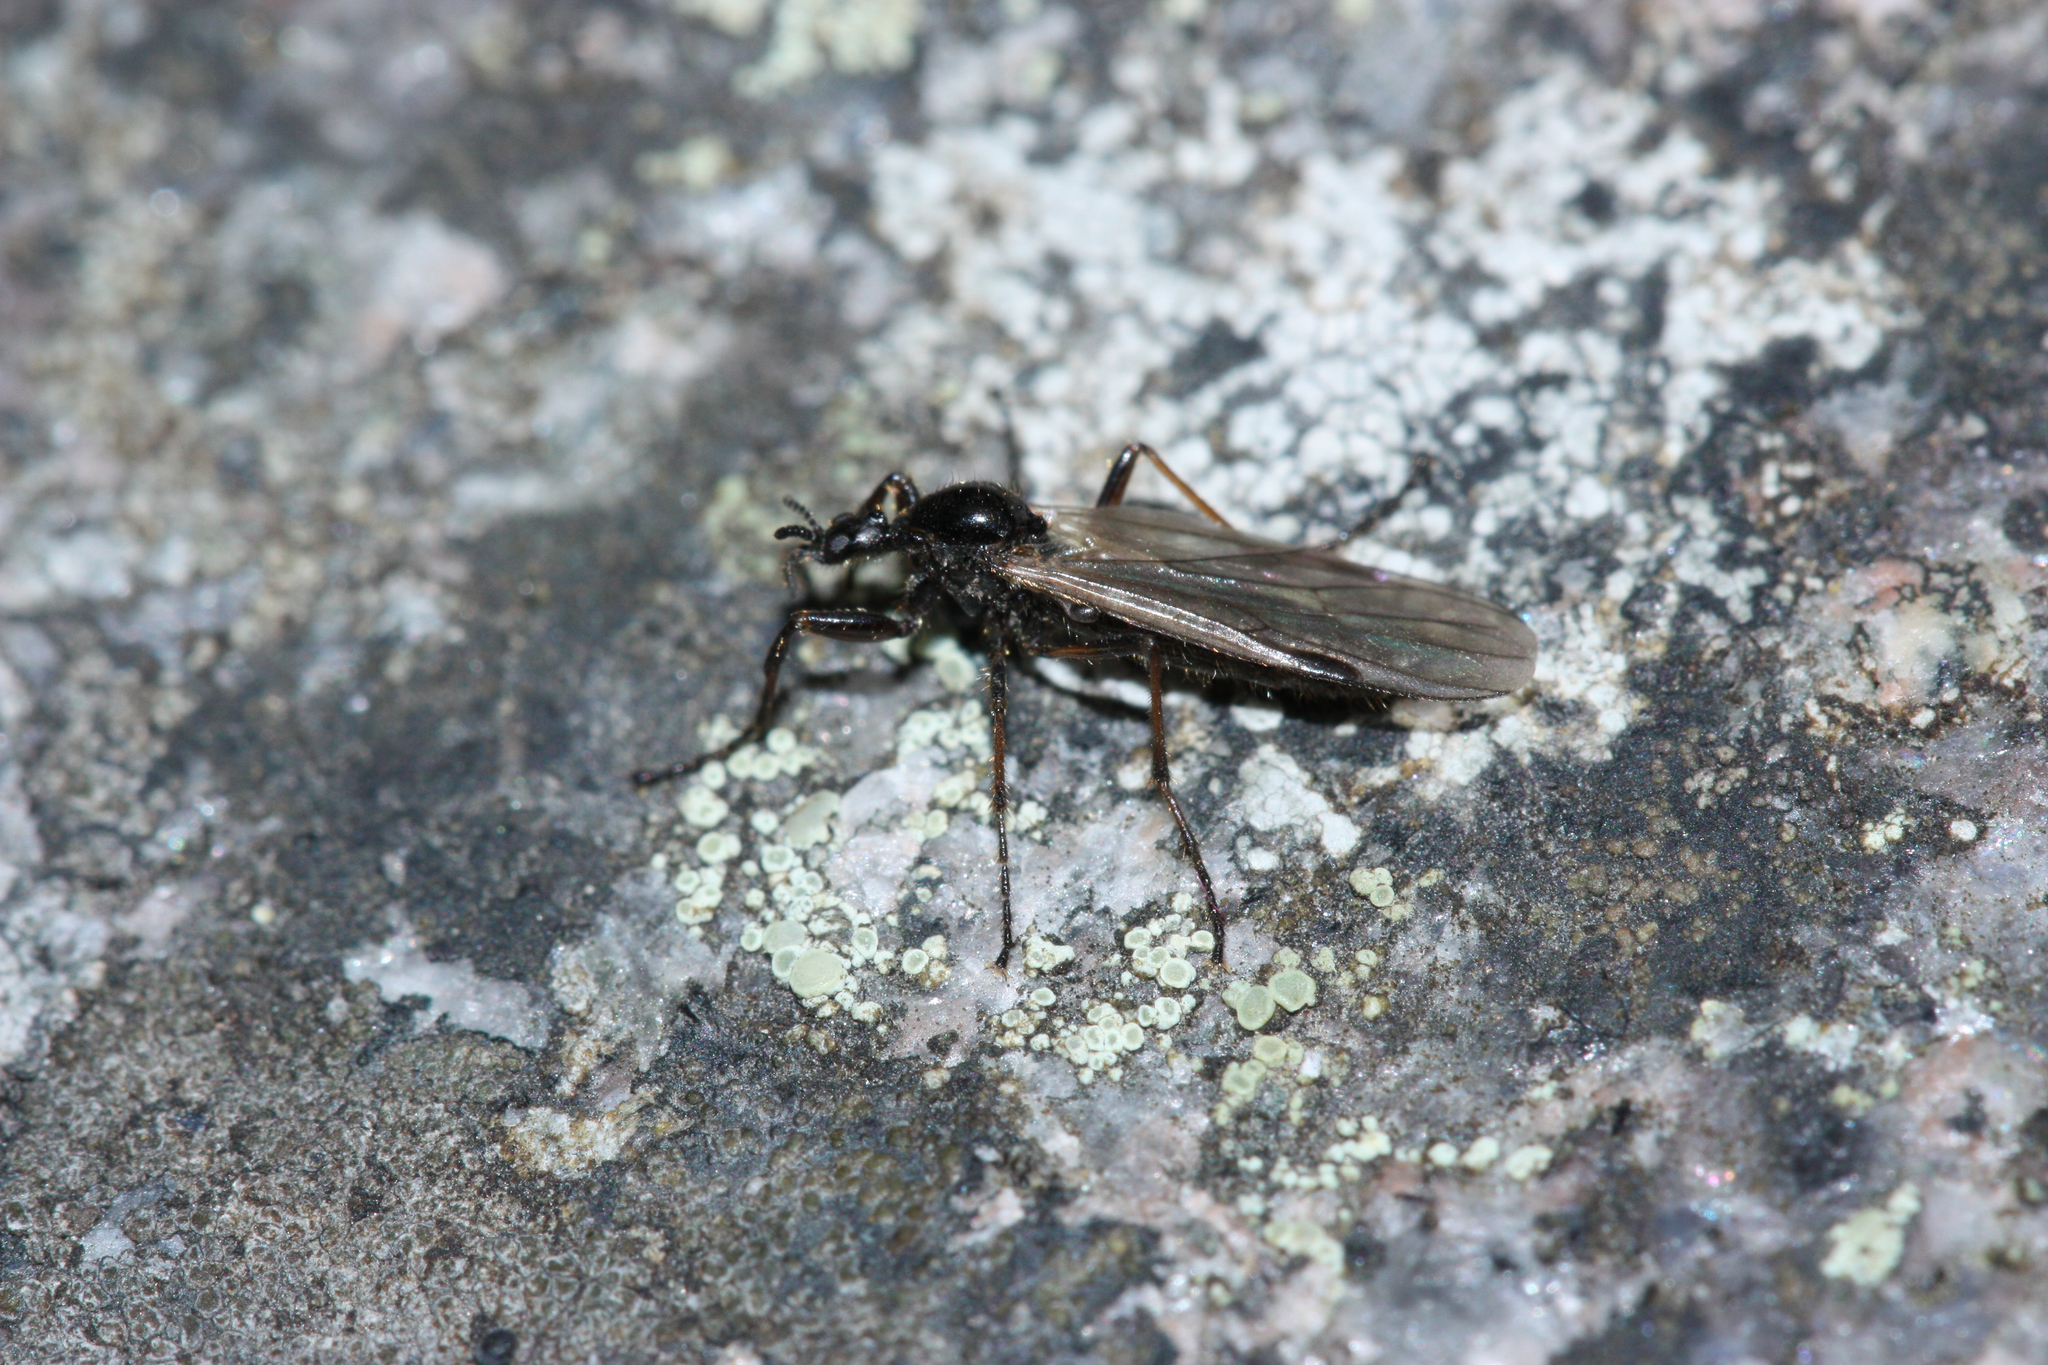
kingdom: Animalia
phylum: Arthropoda
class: Insecta
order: Diptera
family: Bibionidae
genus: Bibio
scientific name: Bibio slossonae
